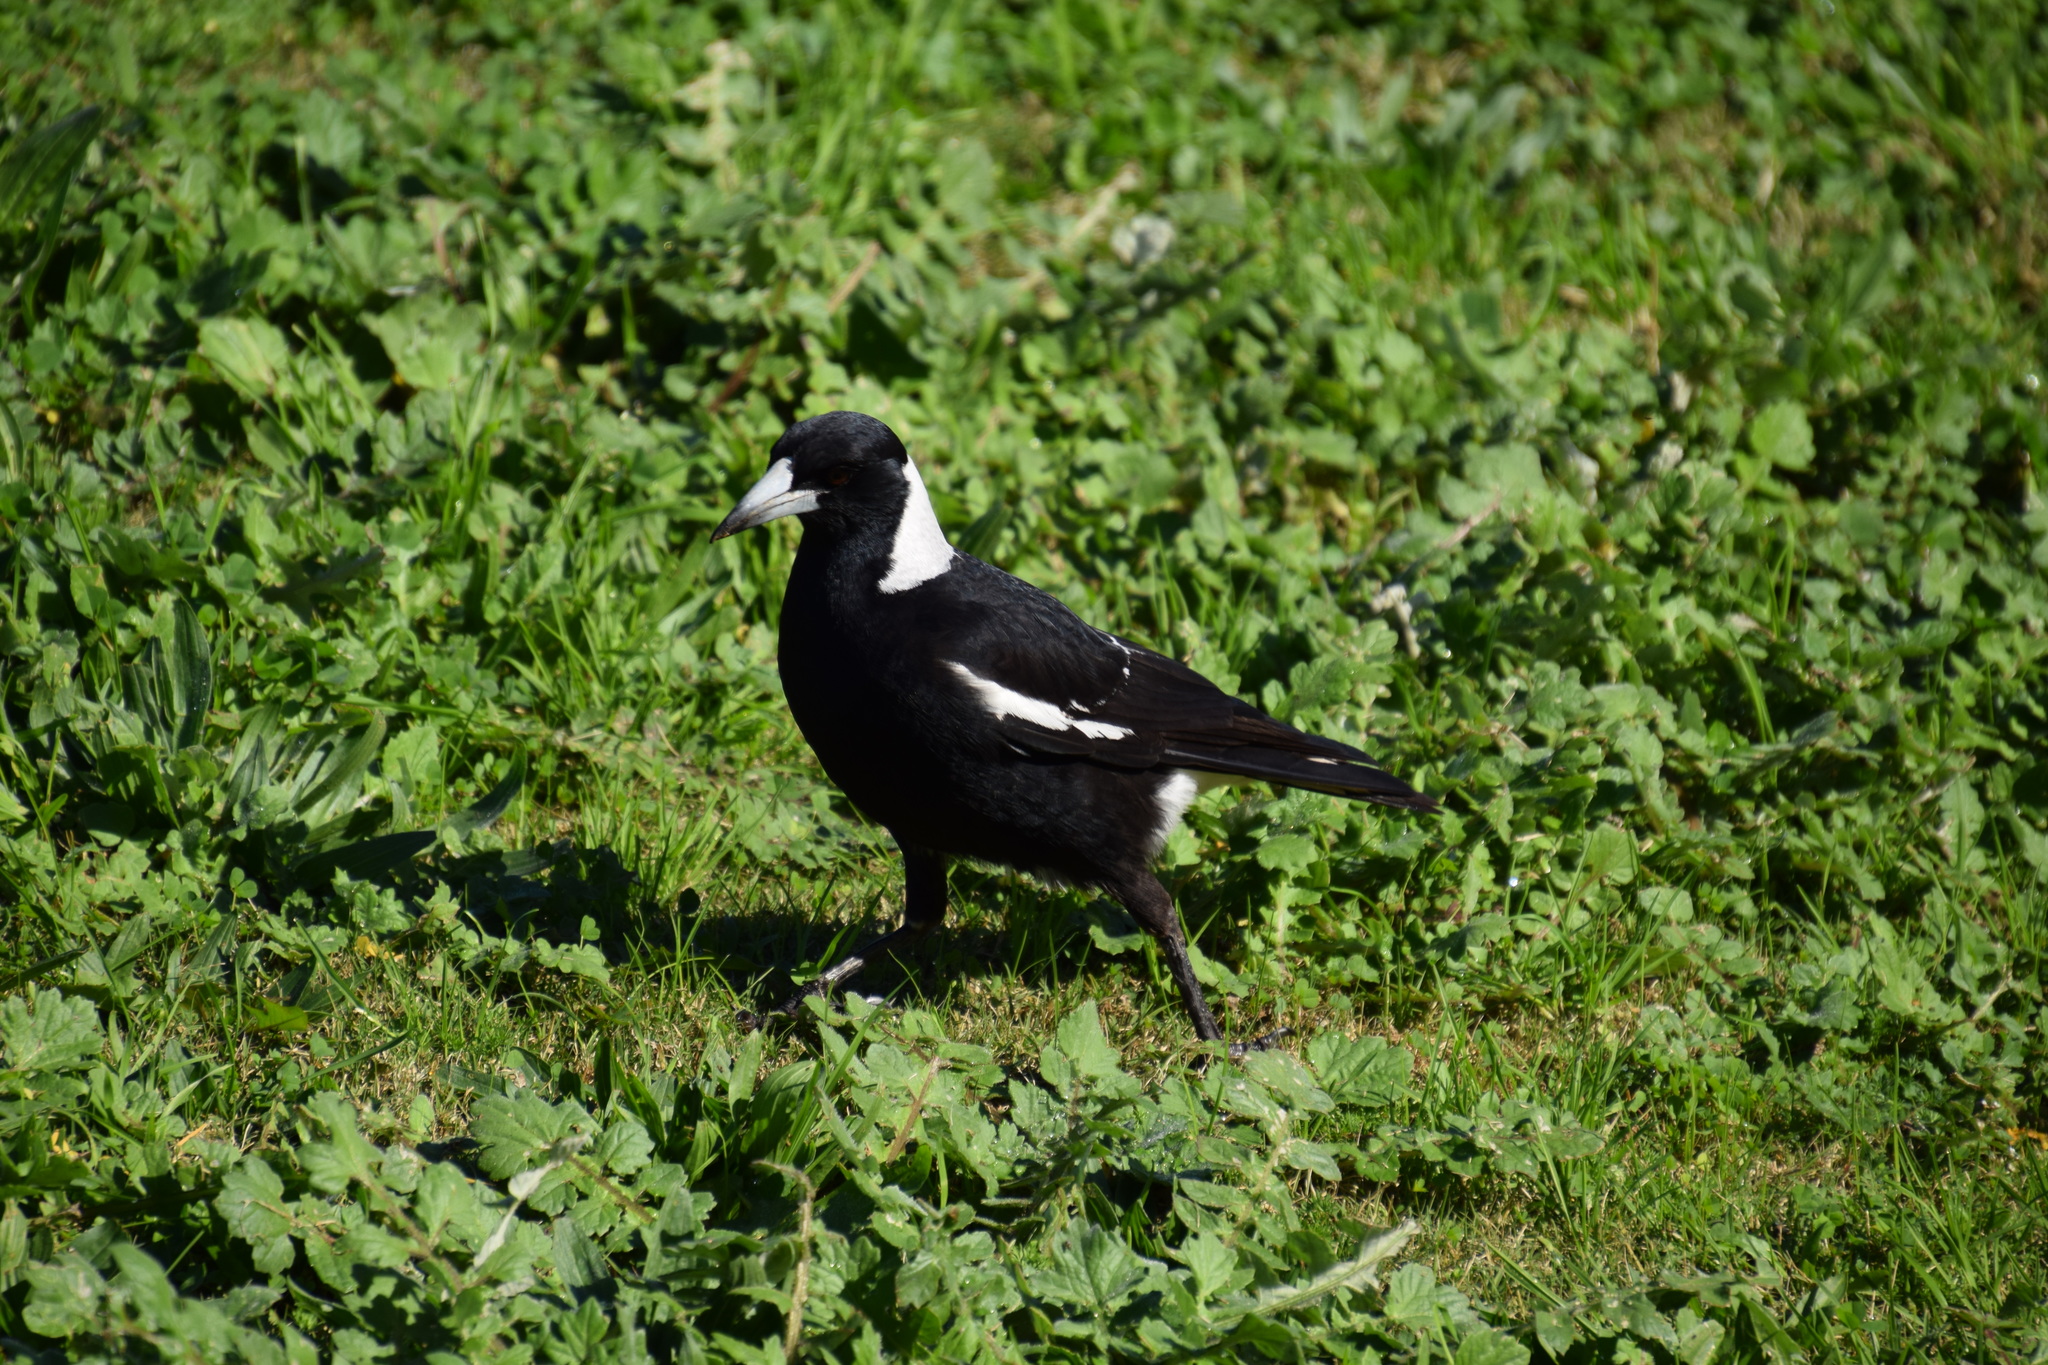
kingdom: Animalia
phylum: Chordata
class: Aves
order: Passeriformes
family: Cracticidae
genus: Gymnorhina
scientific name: Gymnorhina tibicen
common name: Australian magpie
